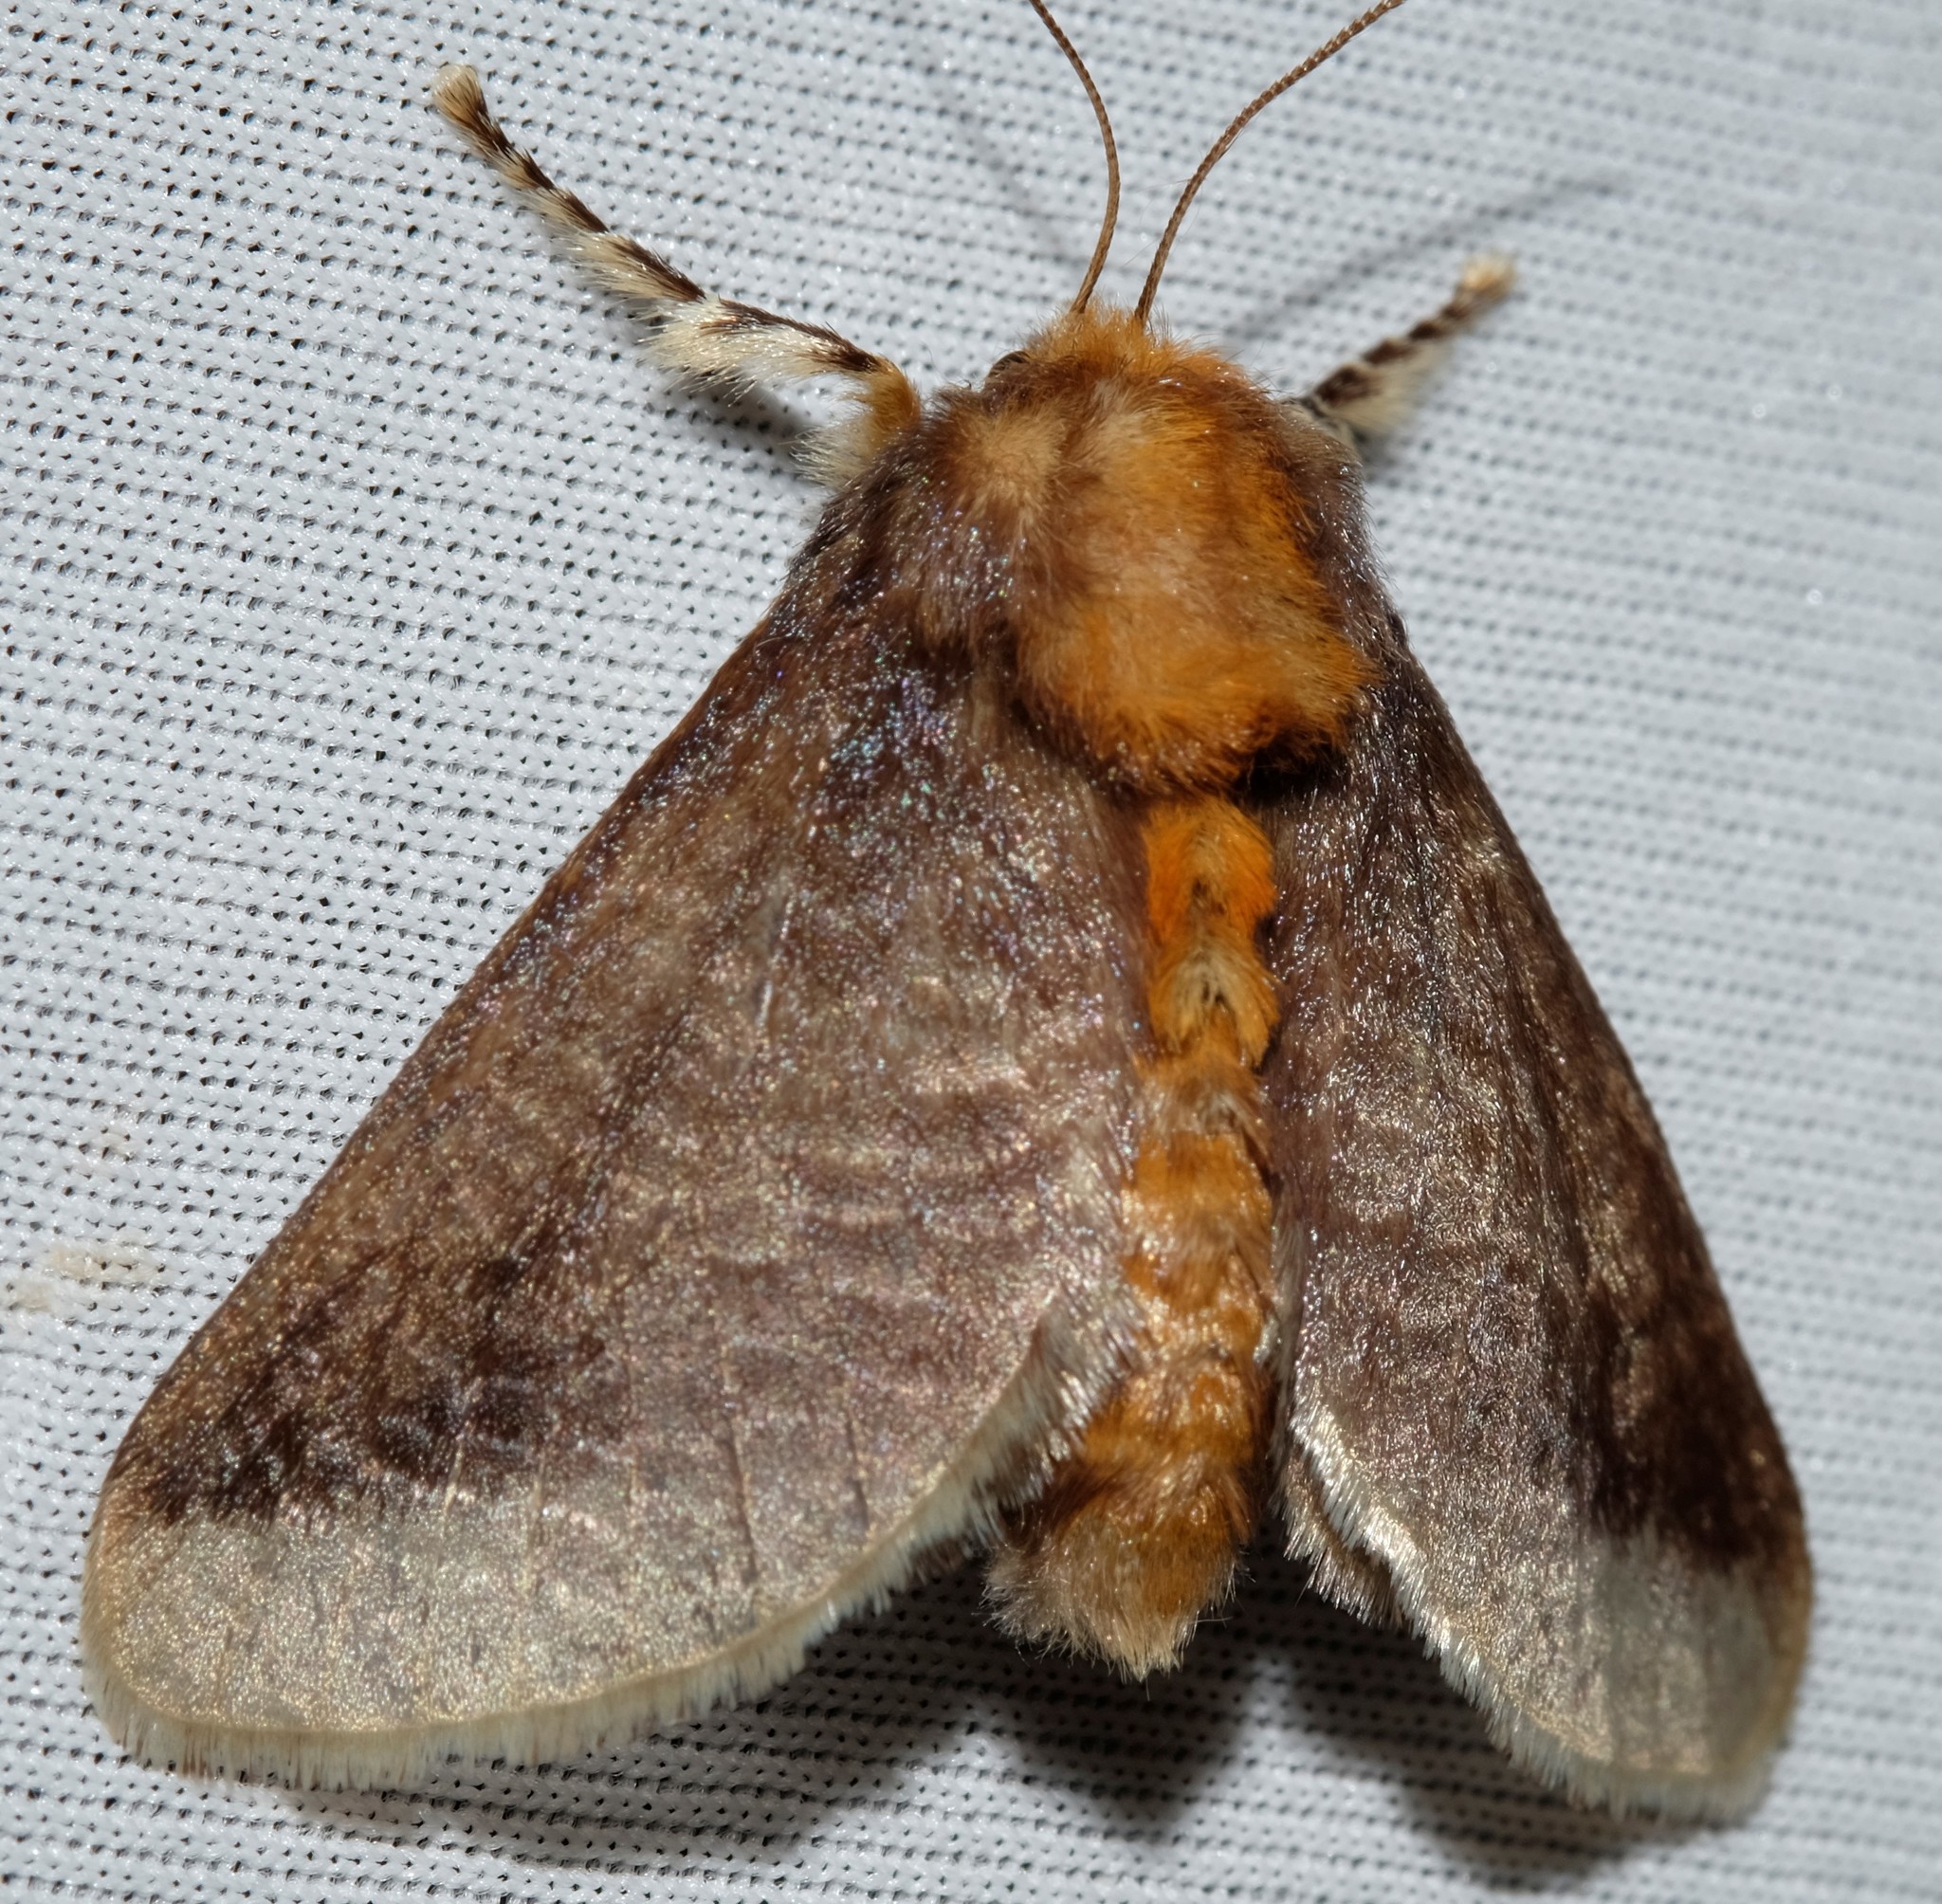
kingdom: Animalia
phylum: Arthropoda
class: Insecta
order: Lepidoptera
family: Limacodidae
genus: Doratifera
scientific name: Doratifera oxleyi
